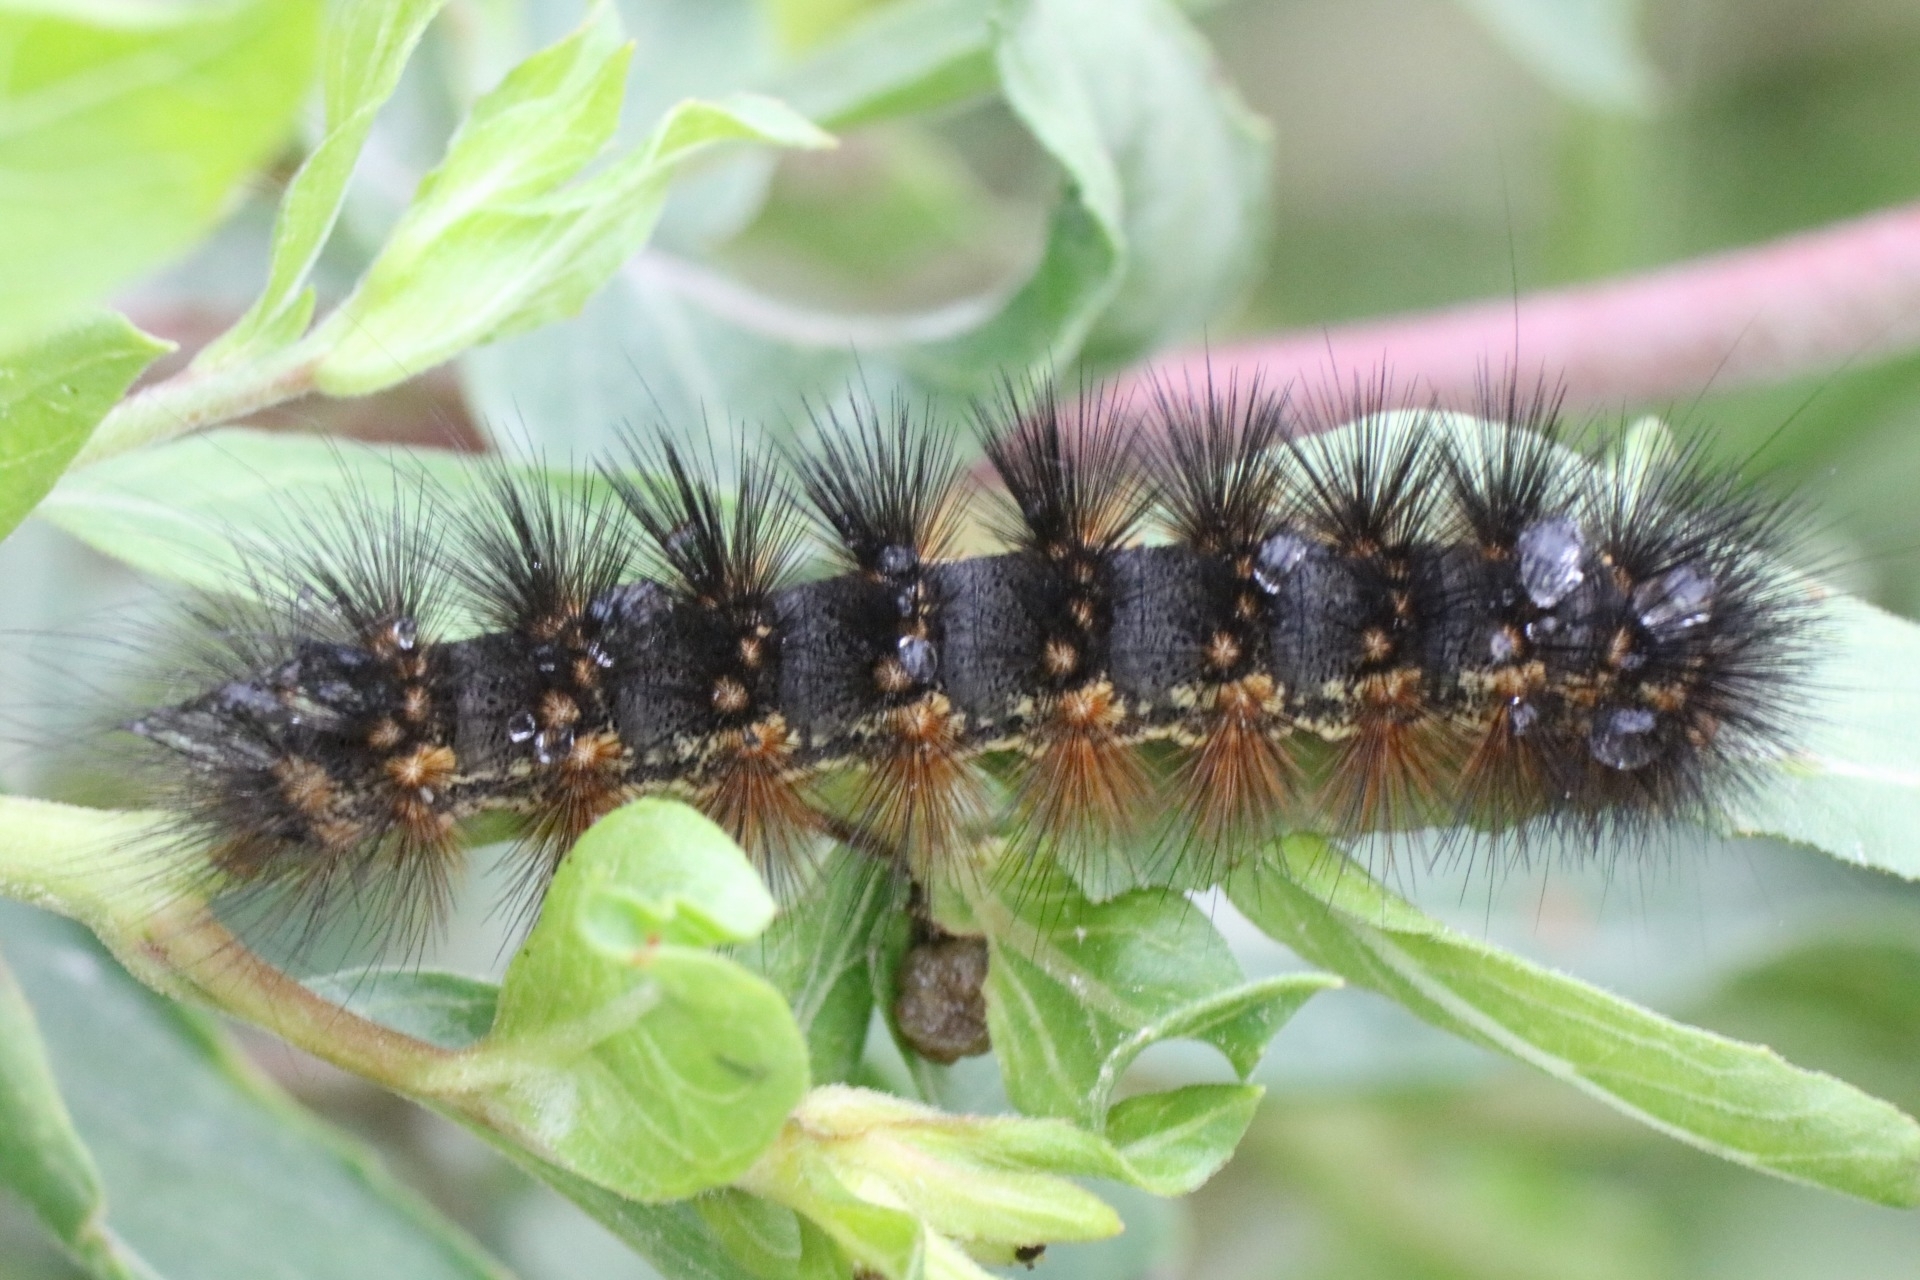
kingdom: Animalia
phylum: Arthropoda
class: Insecta
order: Lepidoptera
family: Erebidae
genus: Estigmene
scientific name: Estigmene acrea
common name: Salt marsh moth
